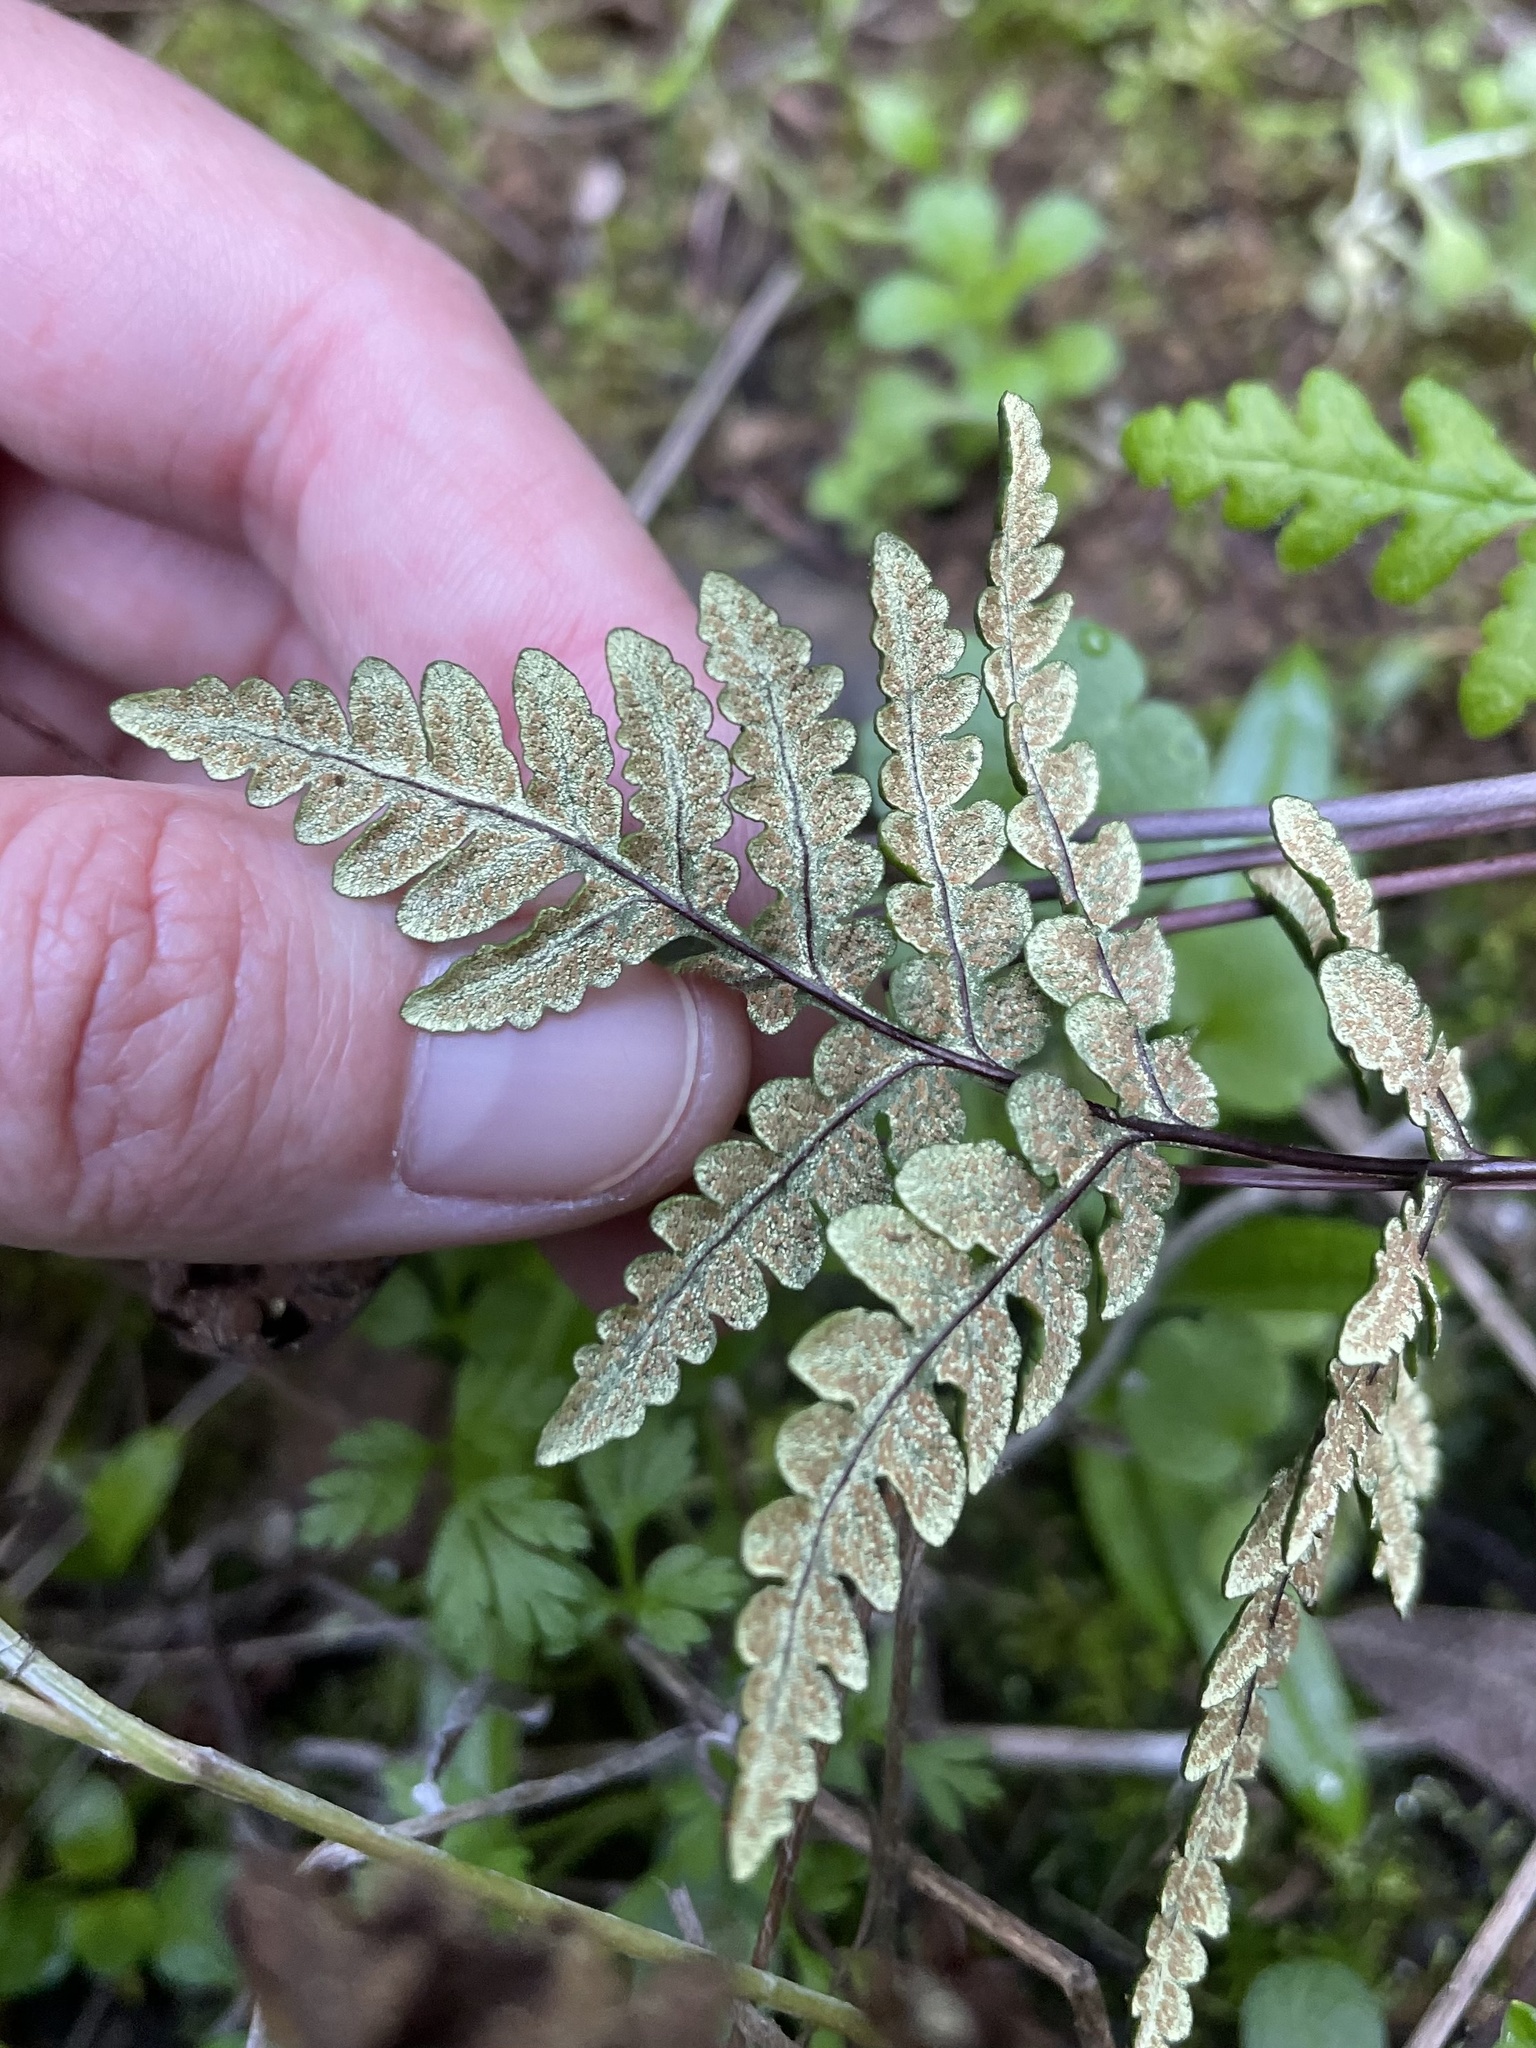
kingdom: Plantae
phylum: Tracheophyta
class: Polypodiopsida
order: Polypodiales
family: Pteridaceae
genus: Pentagramma
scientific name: Pentagramma triangularis
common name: Gold fern
